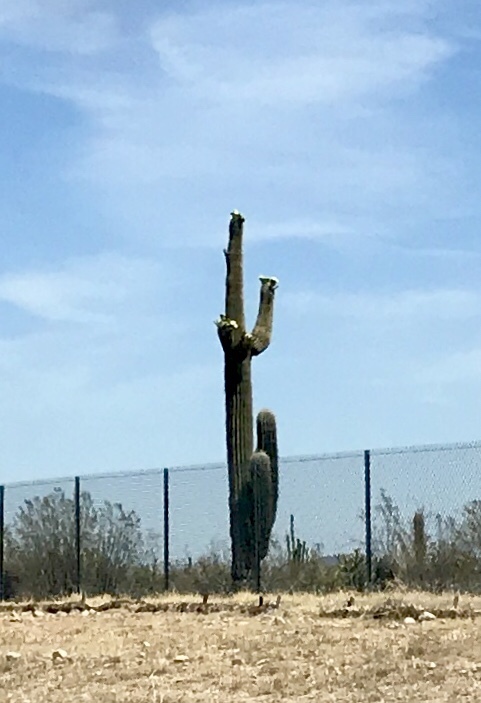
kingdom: Plantae
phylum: Tracheophyta
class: Magnoliopsida
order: Caryophyllales
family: Cactaceae
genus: Carnegiea
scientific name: Carnegiea gigantea
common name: Saguaro
